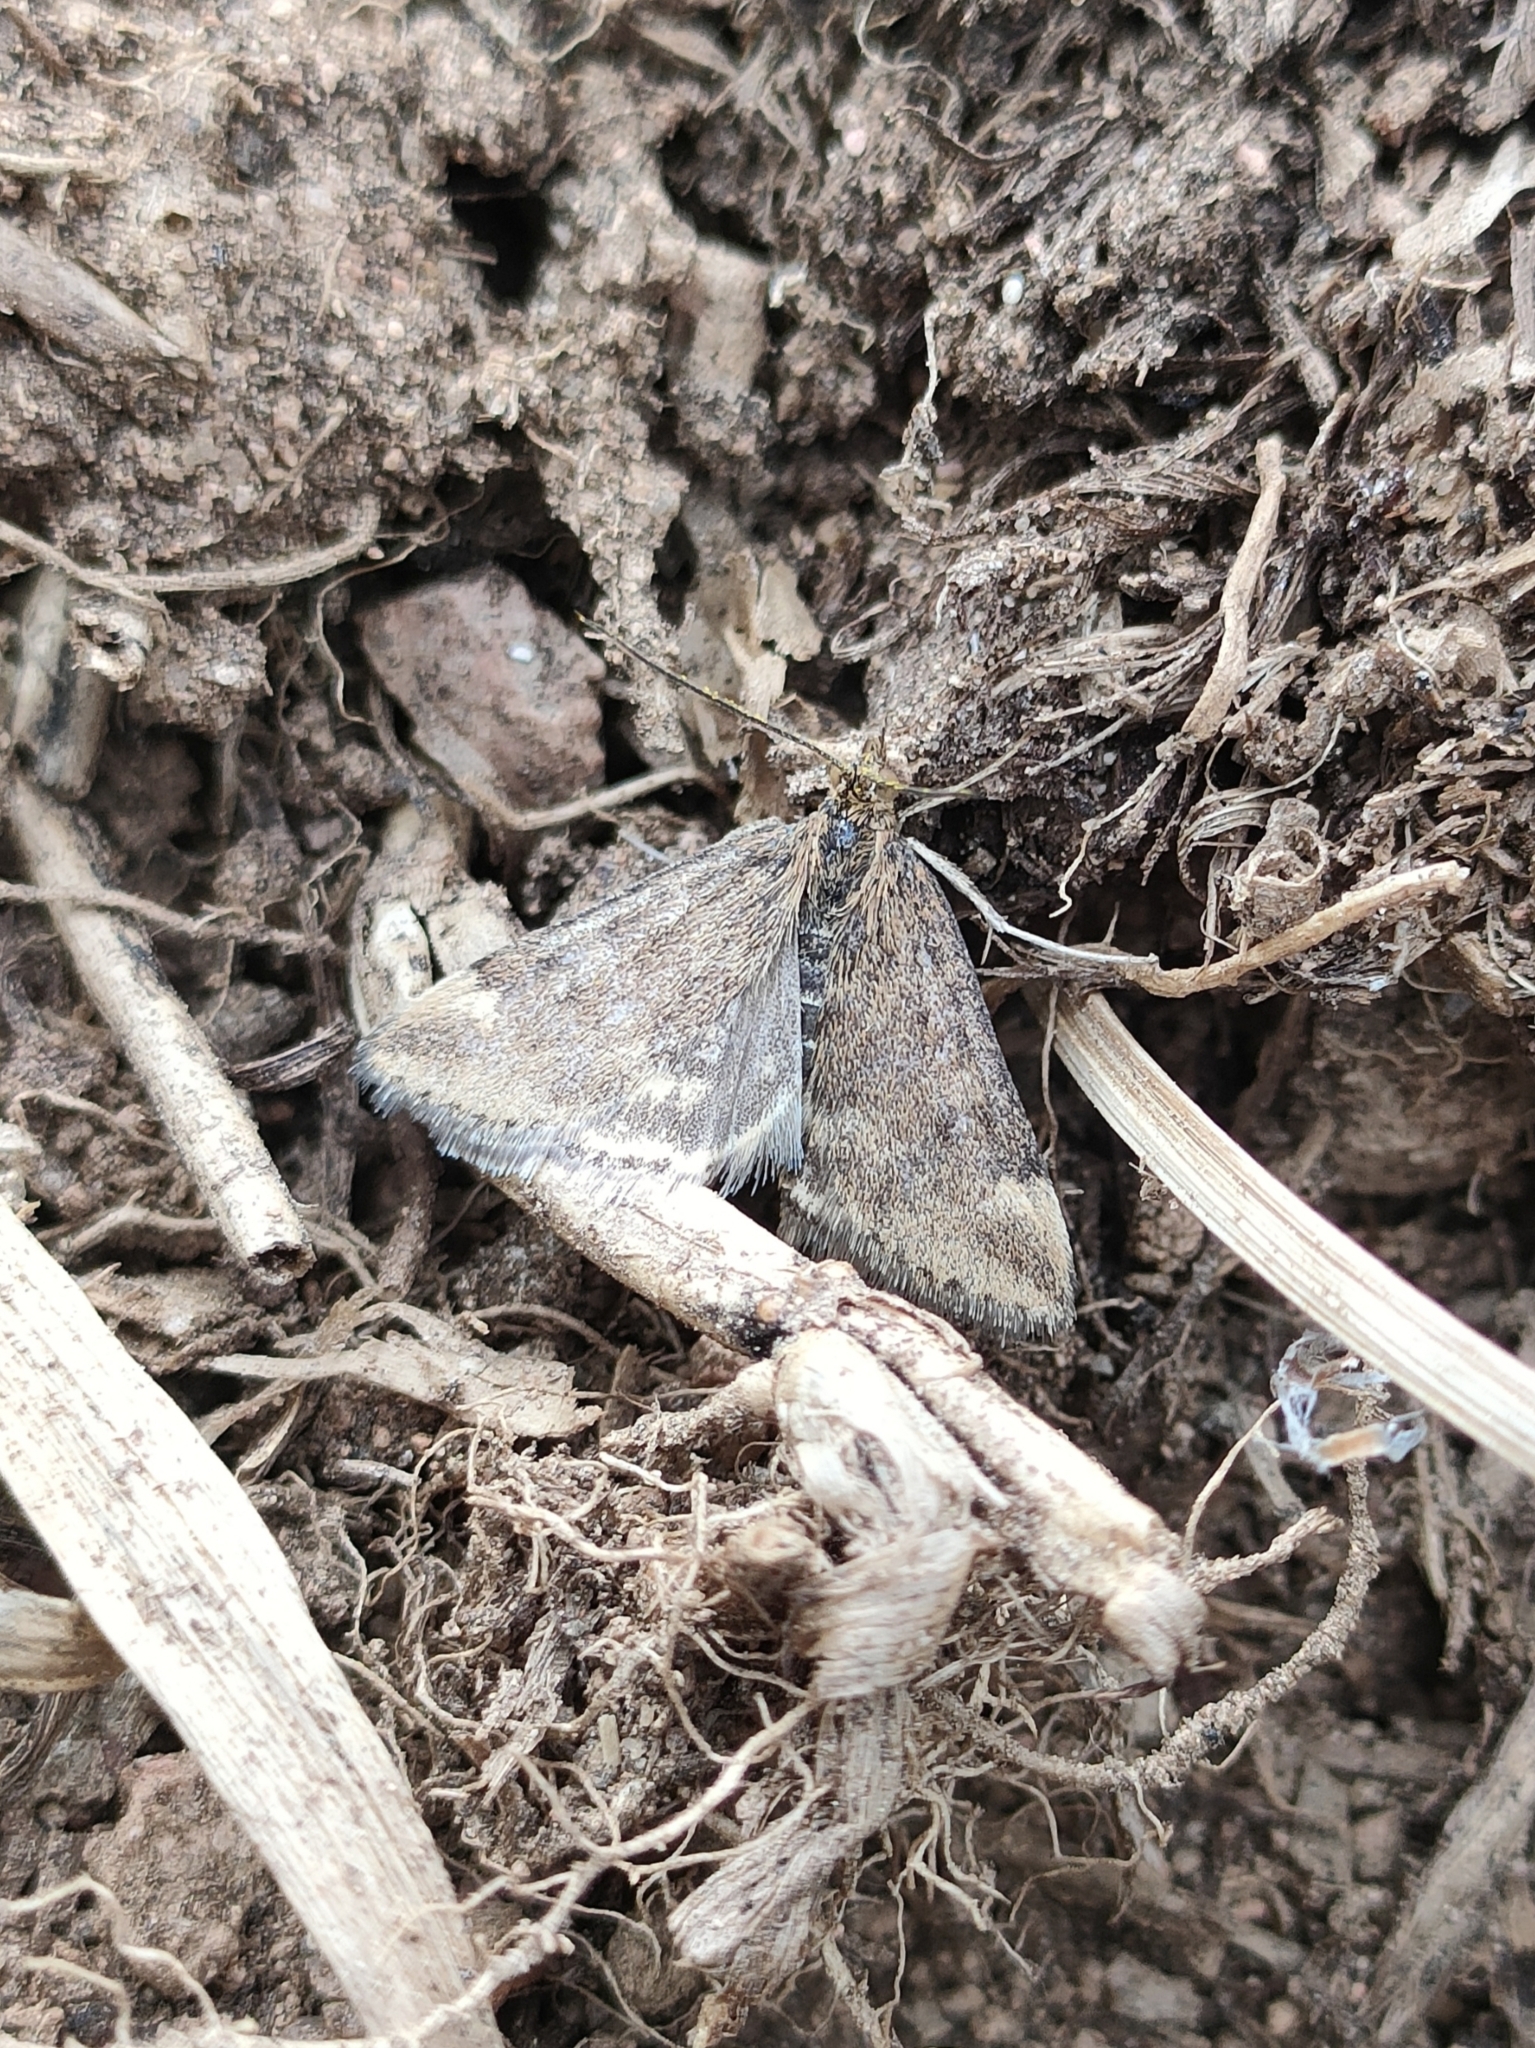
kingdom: Animalia
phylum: Arthropoda
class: Insecta
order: Lepidoptera
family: Crambidae
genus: Pyrausta
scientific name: Pyrausta despicata
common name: Straw-barred pearl
